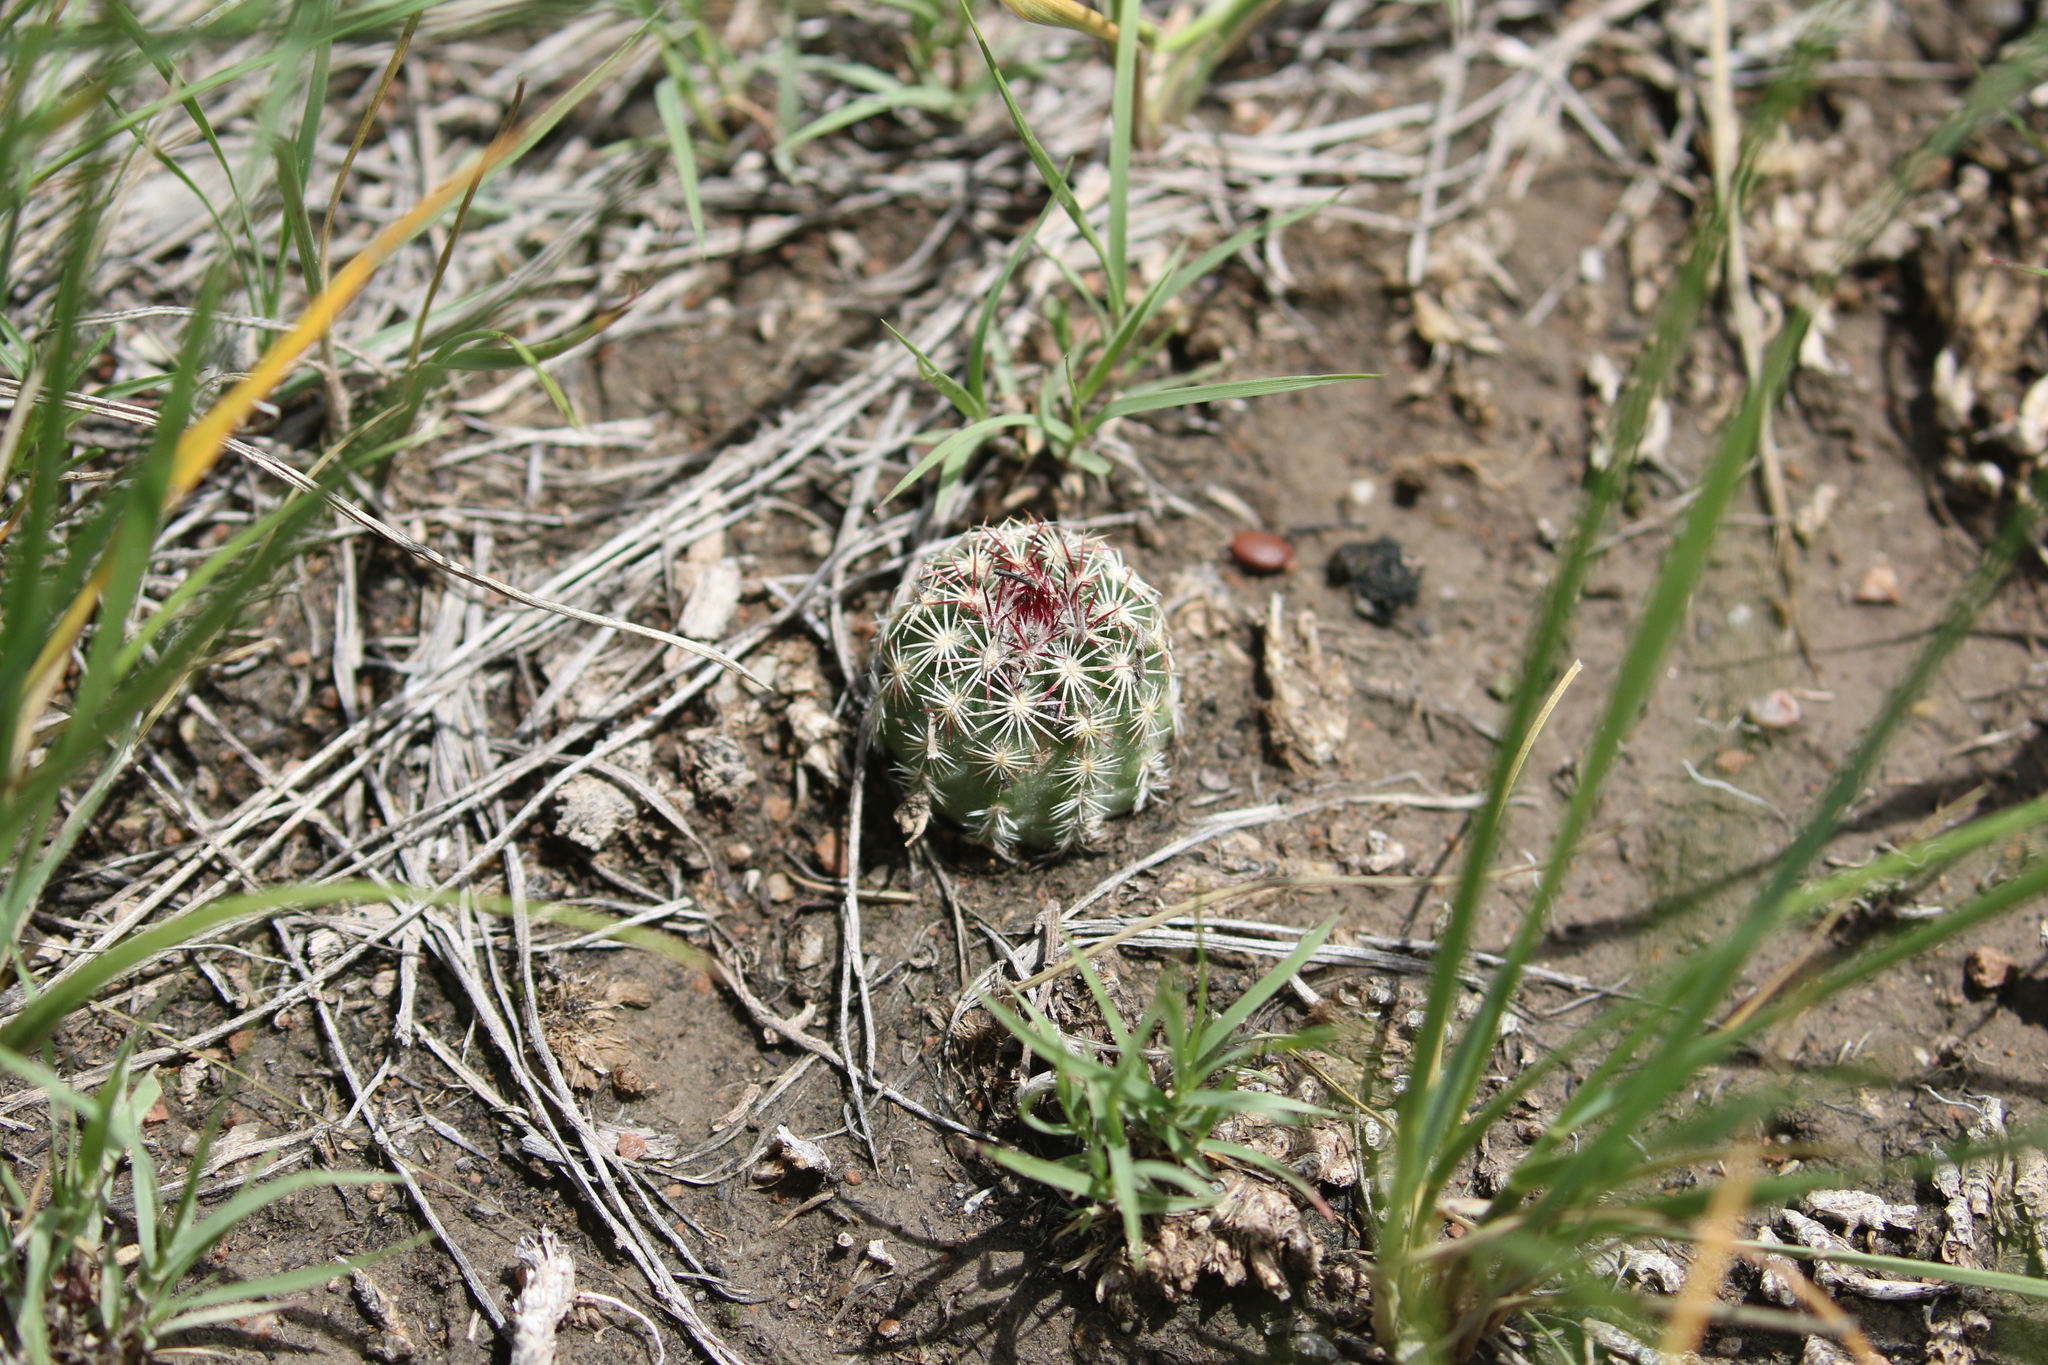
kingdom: Plantae
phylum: Tracheophyta
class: Magnoliopsida
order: Caryophyllales
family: Cactaceae
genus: Echinocereus
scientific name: Echinocereus viridiflorus
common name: Nylon hedgehog cactus
